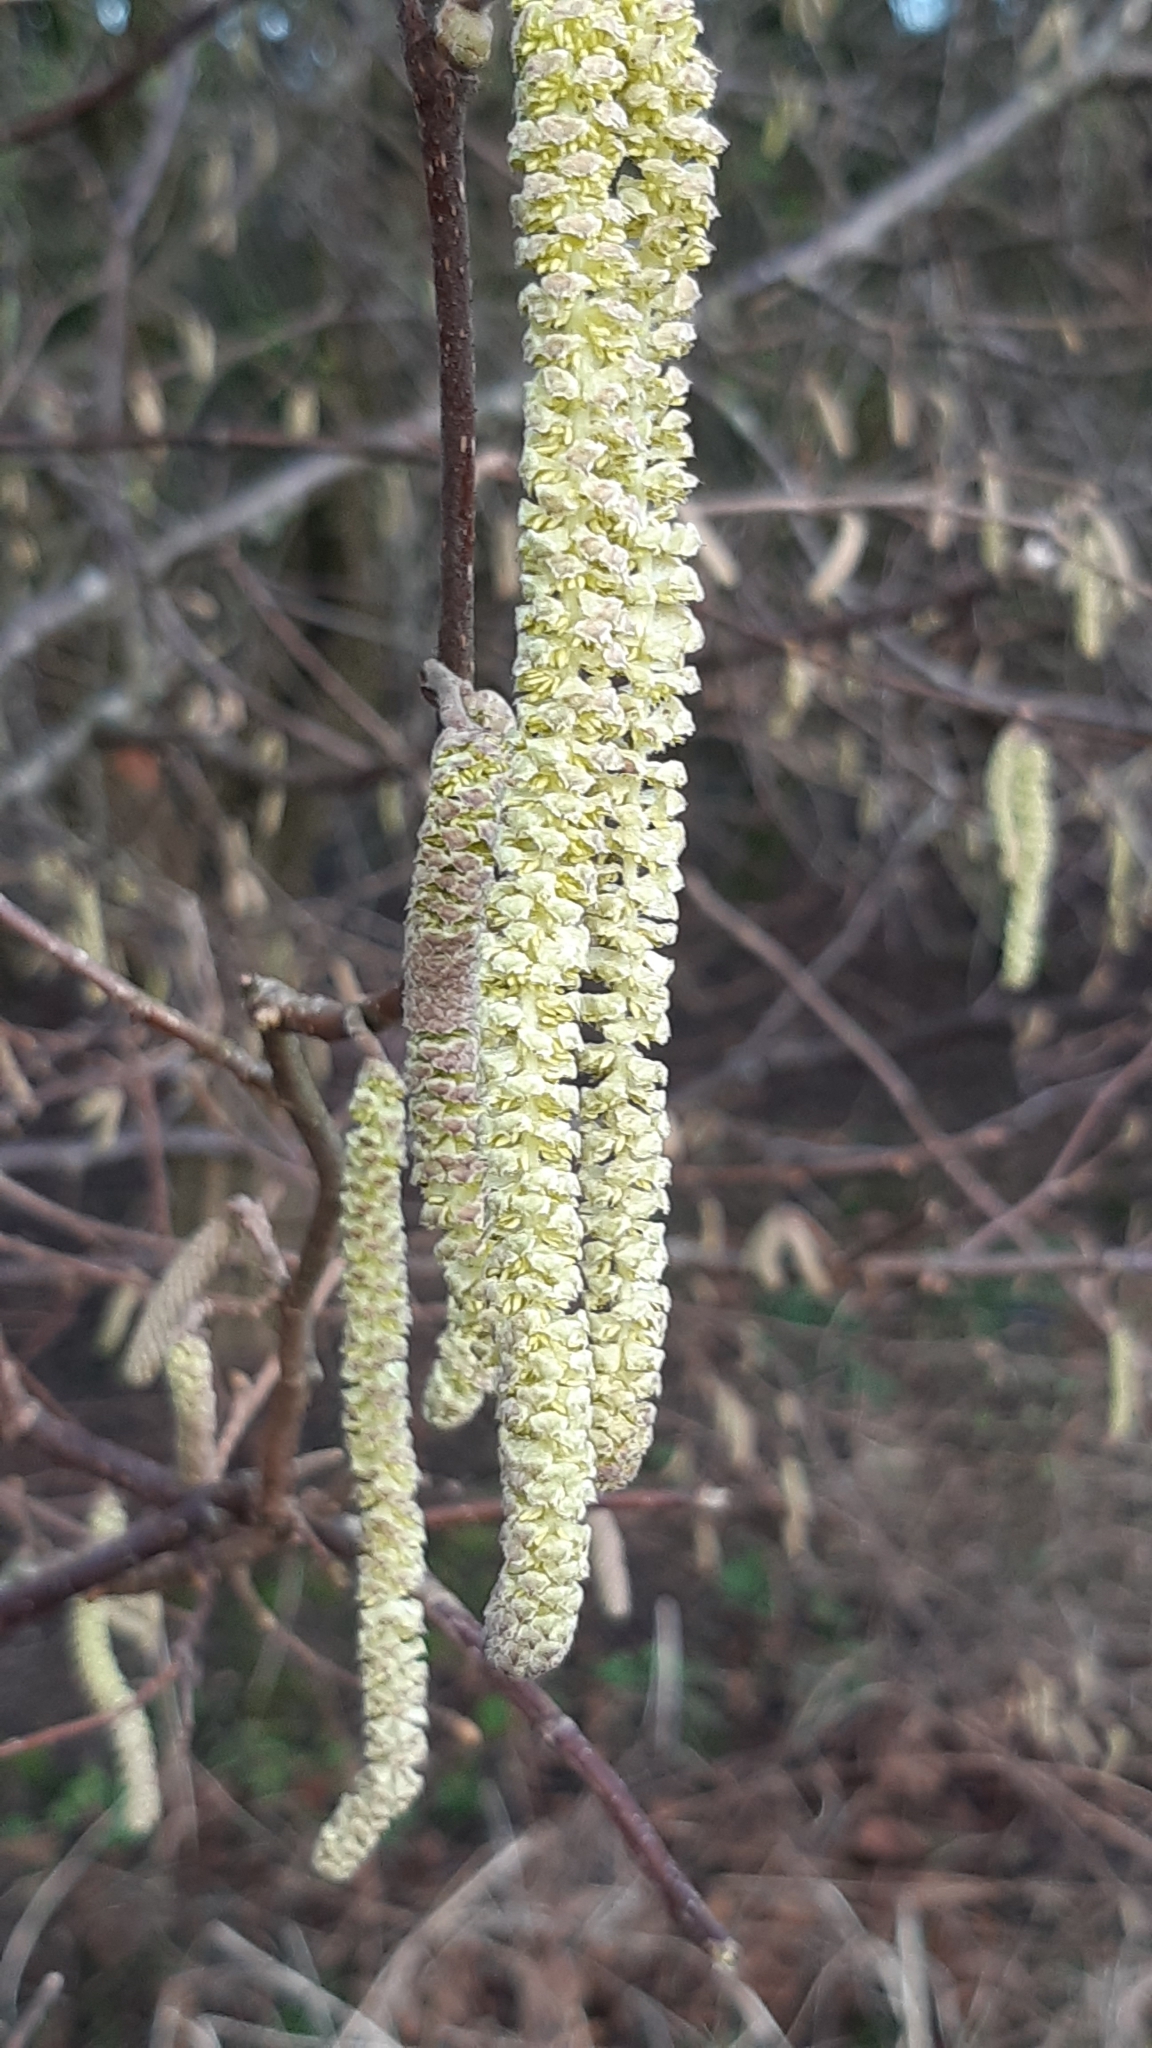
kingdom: Plantae
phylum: Tracheophyta
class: Magnoliopsida
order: Fagales
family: Betulaceae
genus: Corylus
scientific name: Corylus avellana
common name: European hazel
